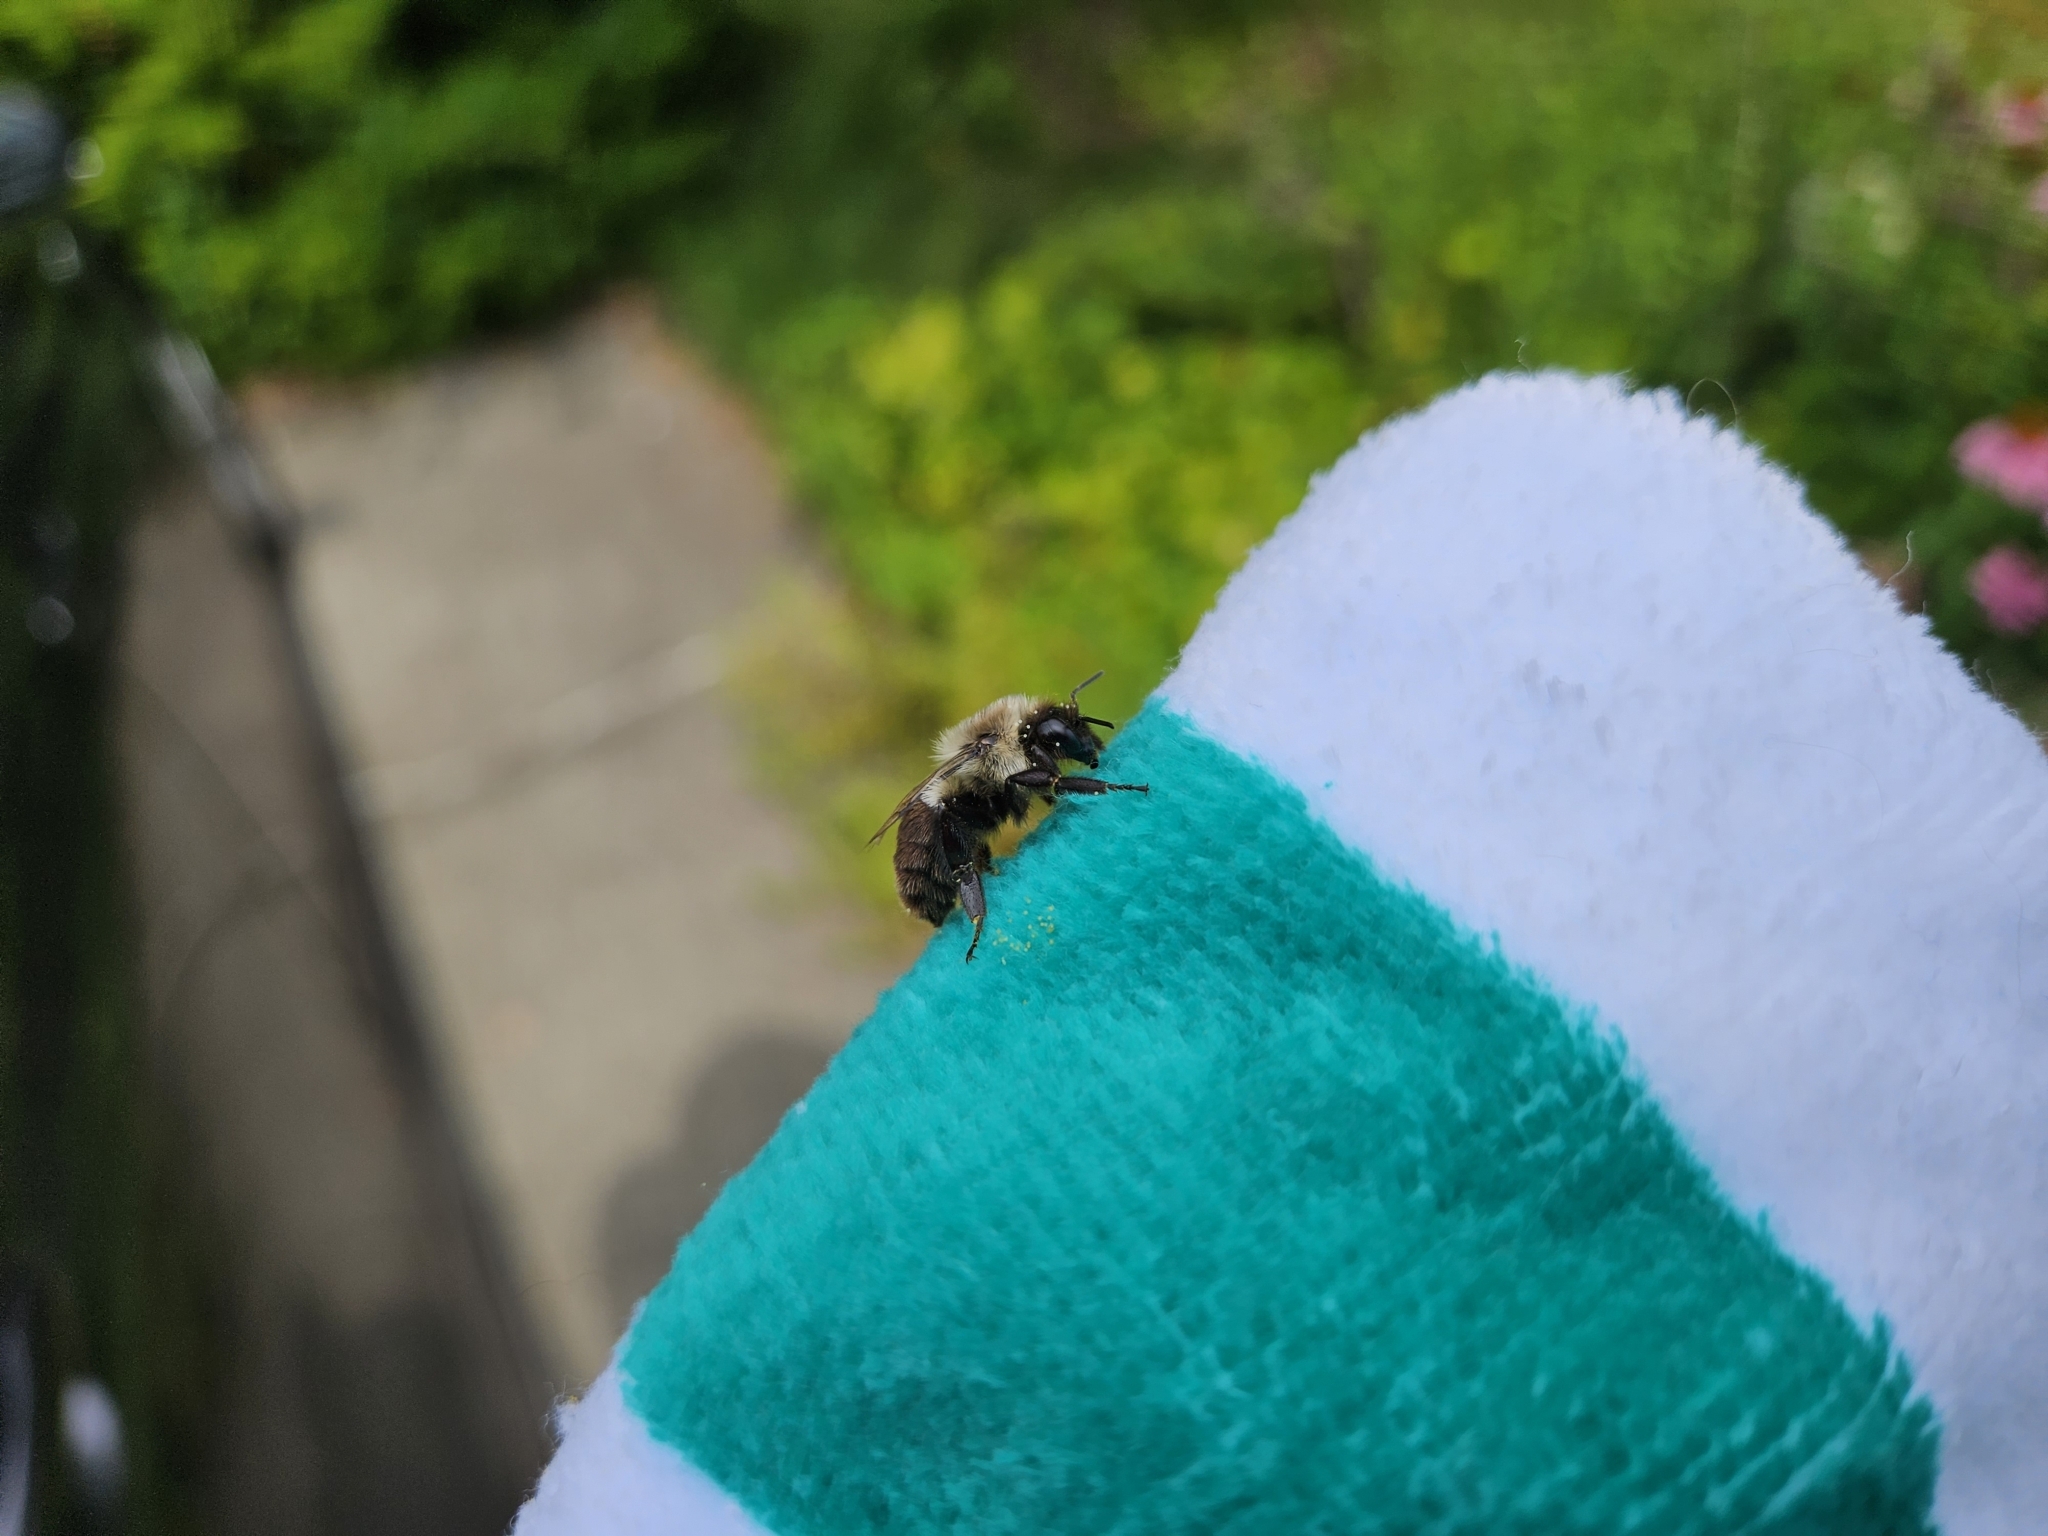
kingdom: Animalia
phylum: Arthropoda
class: Insecta
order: Hymenoptera
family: Apidae
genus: Bombus
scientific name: Bombus impatiens
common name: Common eastern bumble bee
